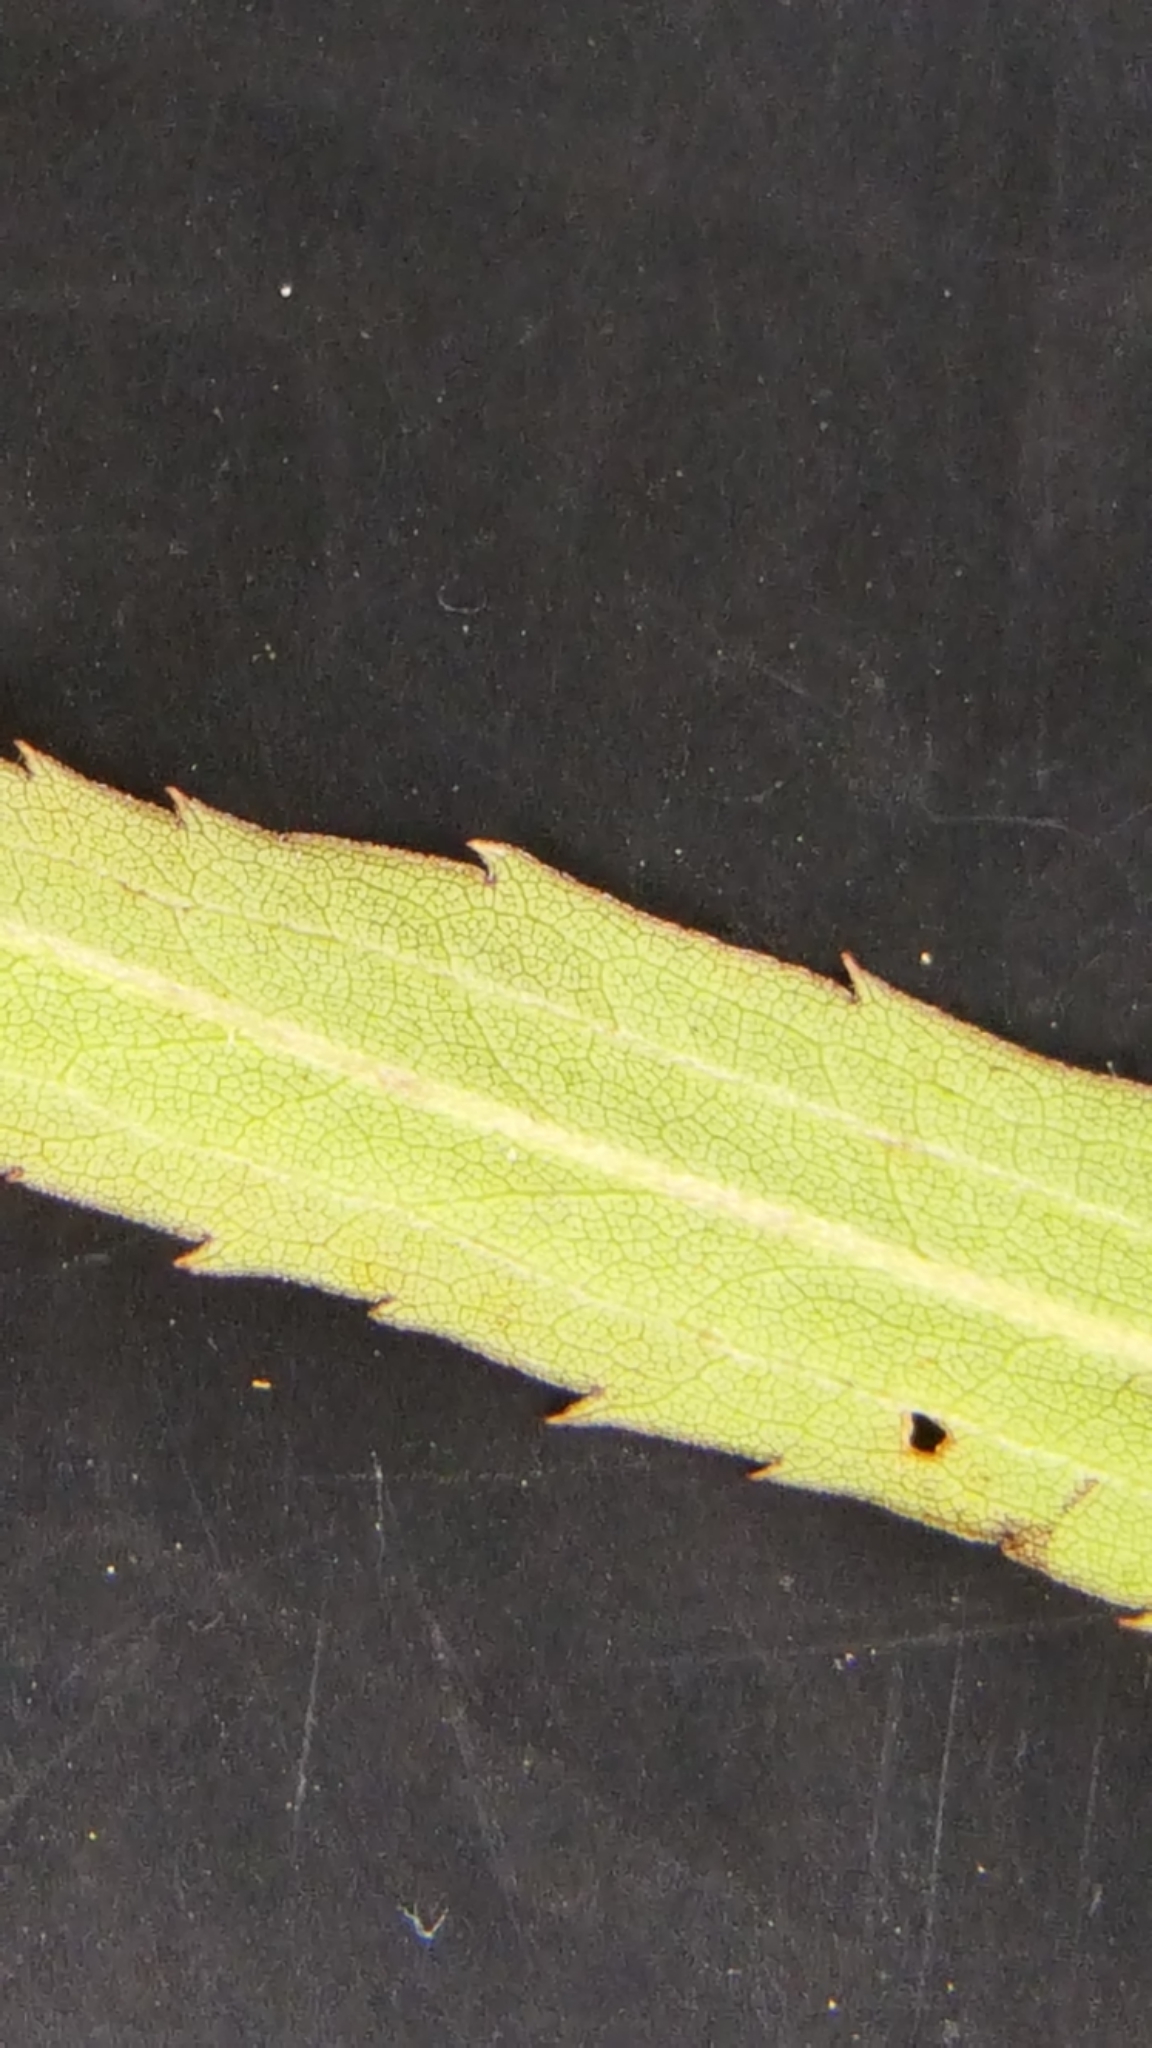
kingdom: Plantae
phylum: Tracheophyta
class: Magnoliopsida
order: Asterales
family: Asteraceae
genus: Solidago
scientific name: Solidago canadensis
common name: Canada goldenrod
